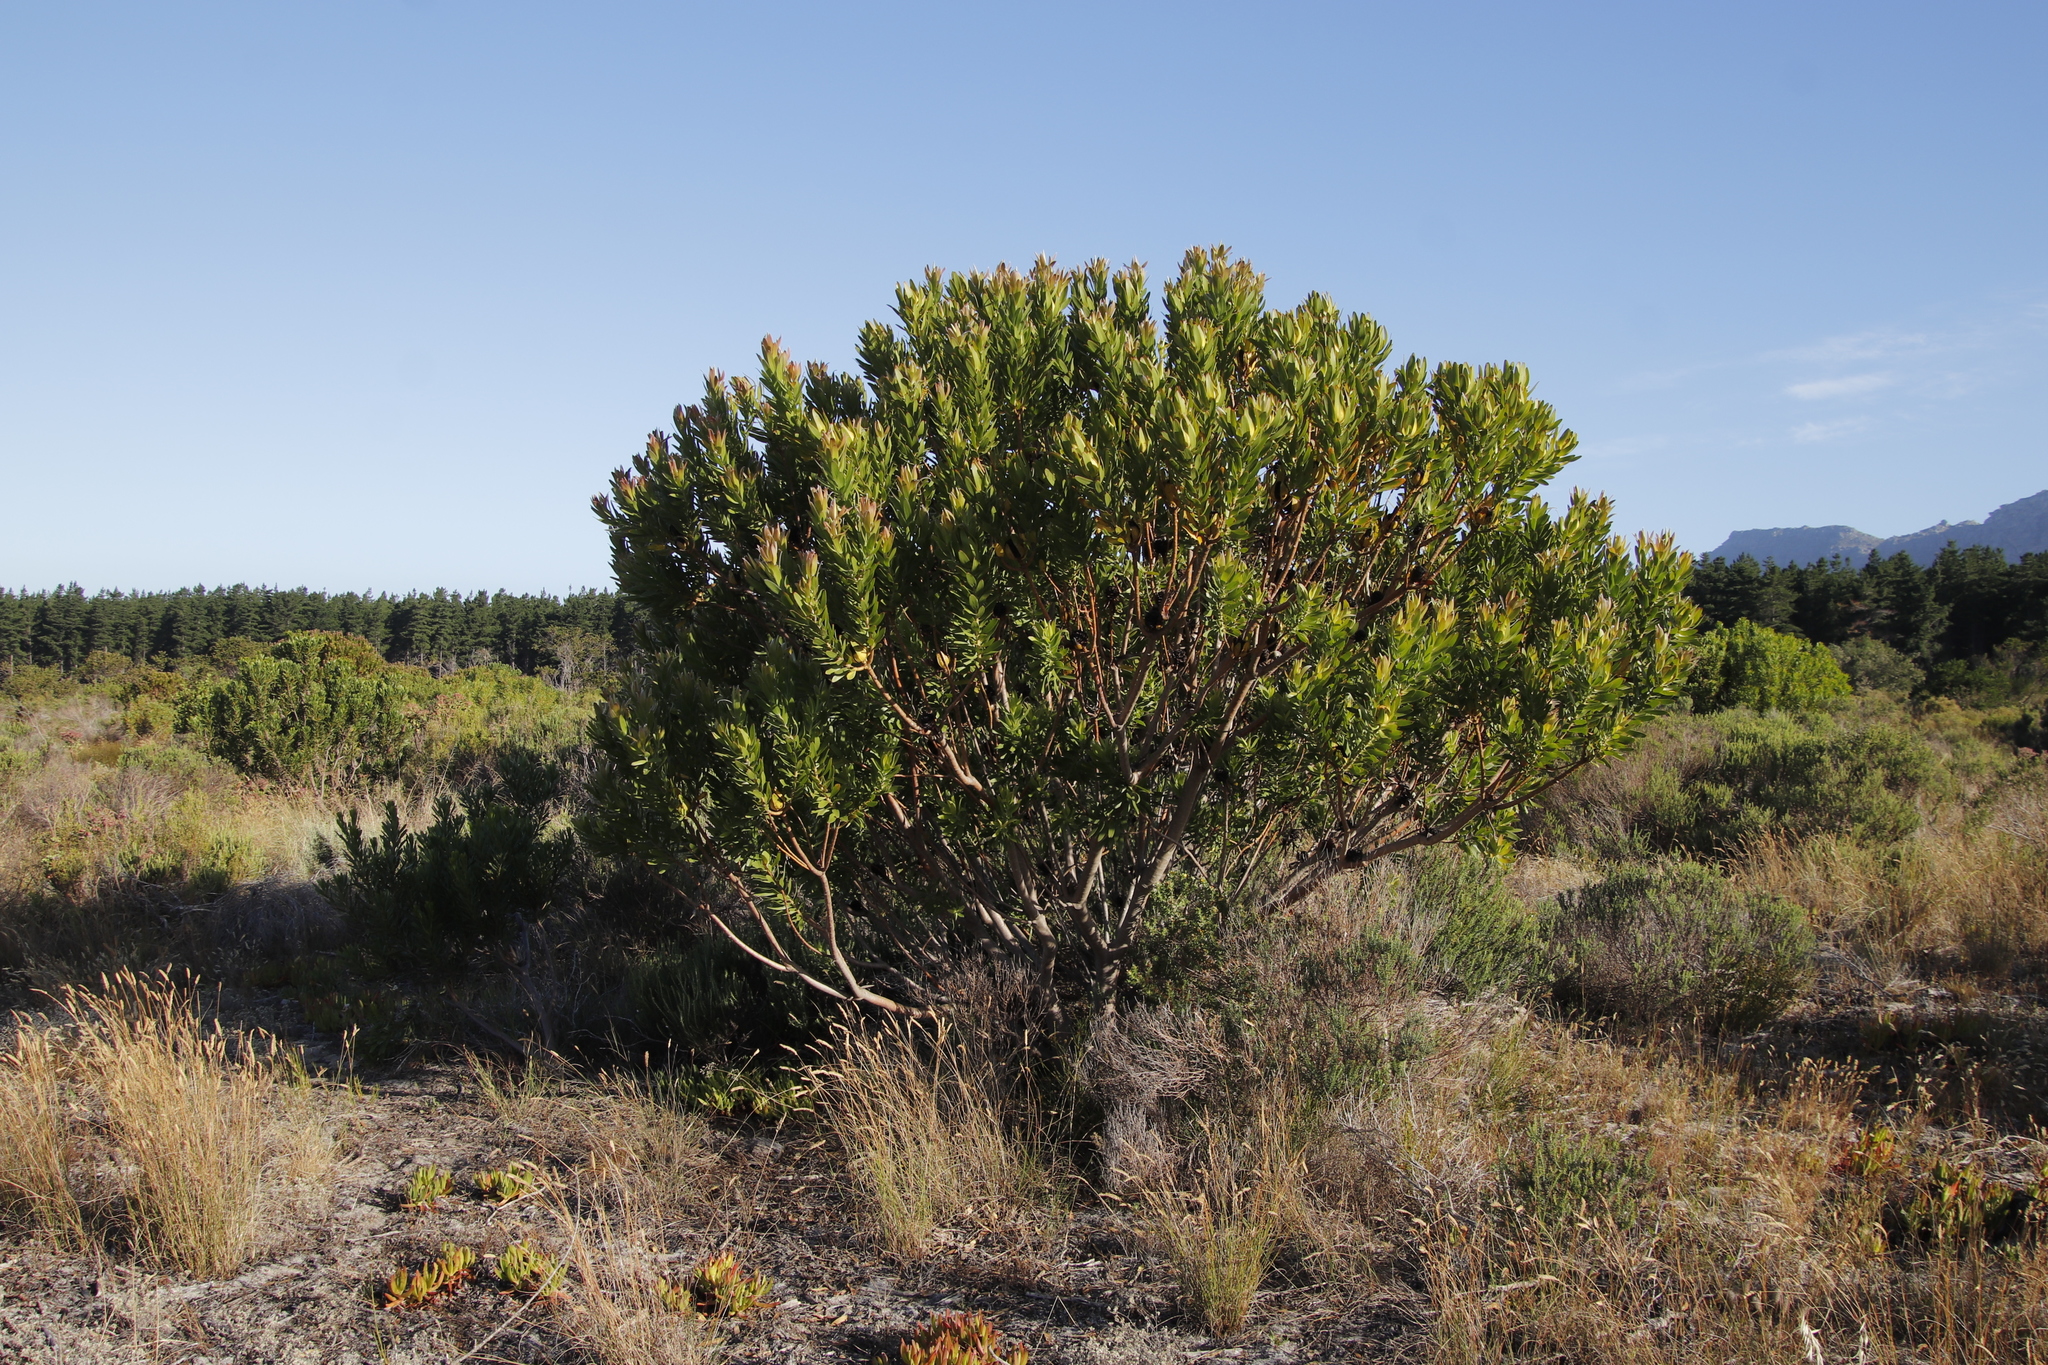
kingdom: Plantae
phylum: Tracheophyta
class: Magnoliopsida
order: Proteales
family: Proteaceae
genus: Leucadendron
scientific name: Leucadendron laureolum
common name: Golden sunshinebush
